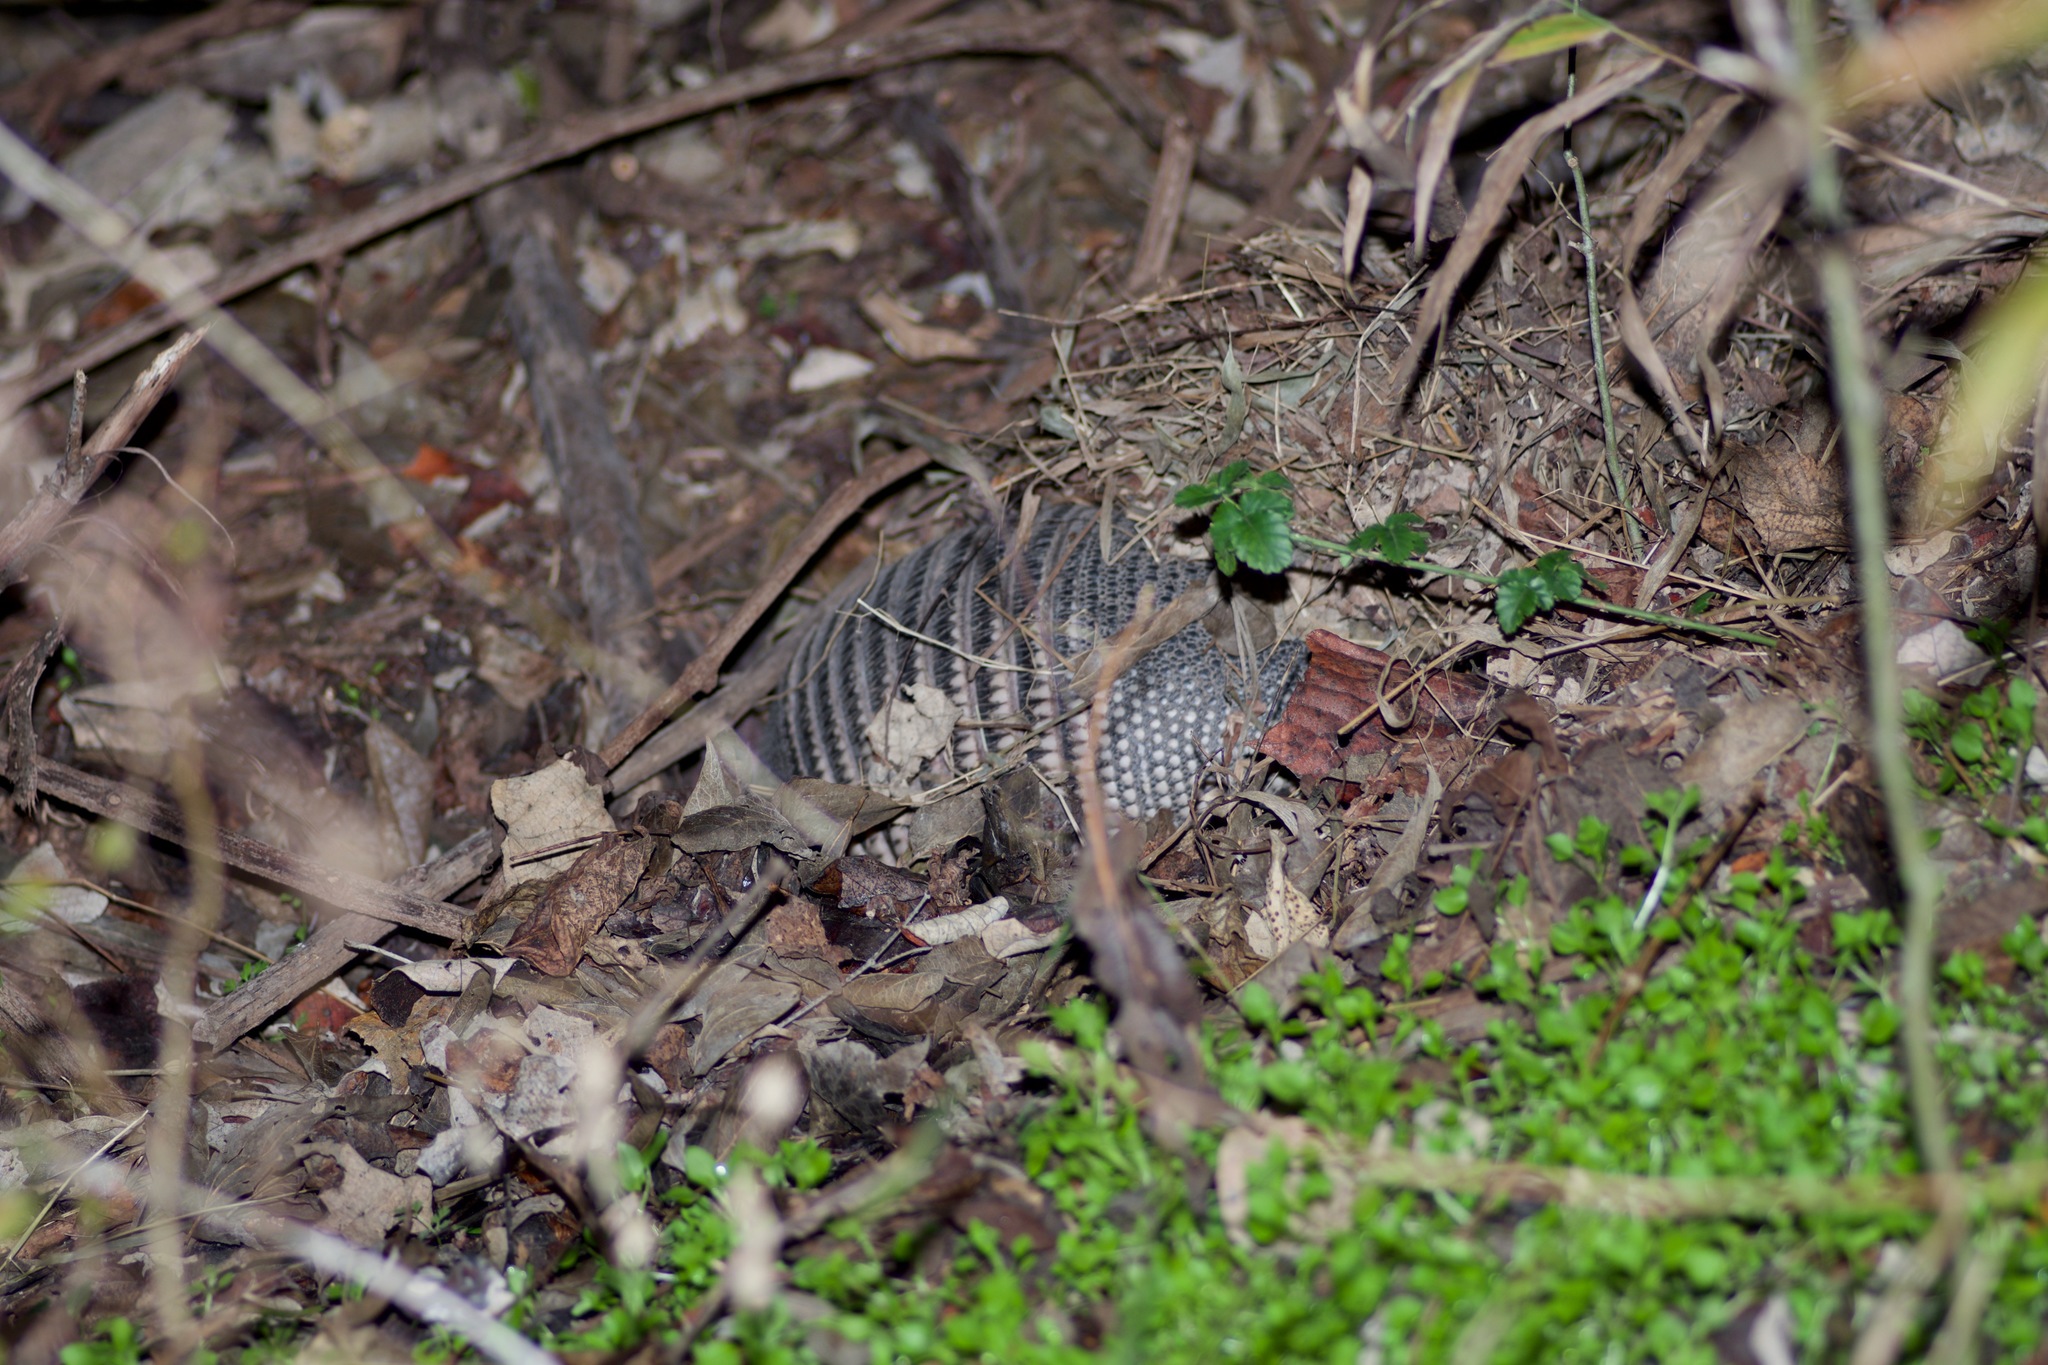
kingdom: Animalia
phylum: Chordata
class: Mammalia
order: Cingulata
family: Dasypodidae
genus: Dasypus
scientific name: Dasypus novemcinctus
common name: Nine-banded armadillo
